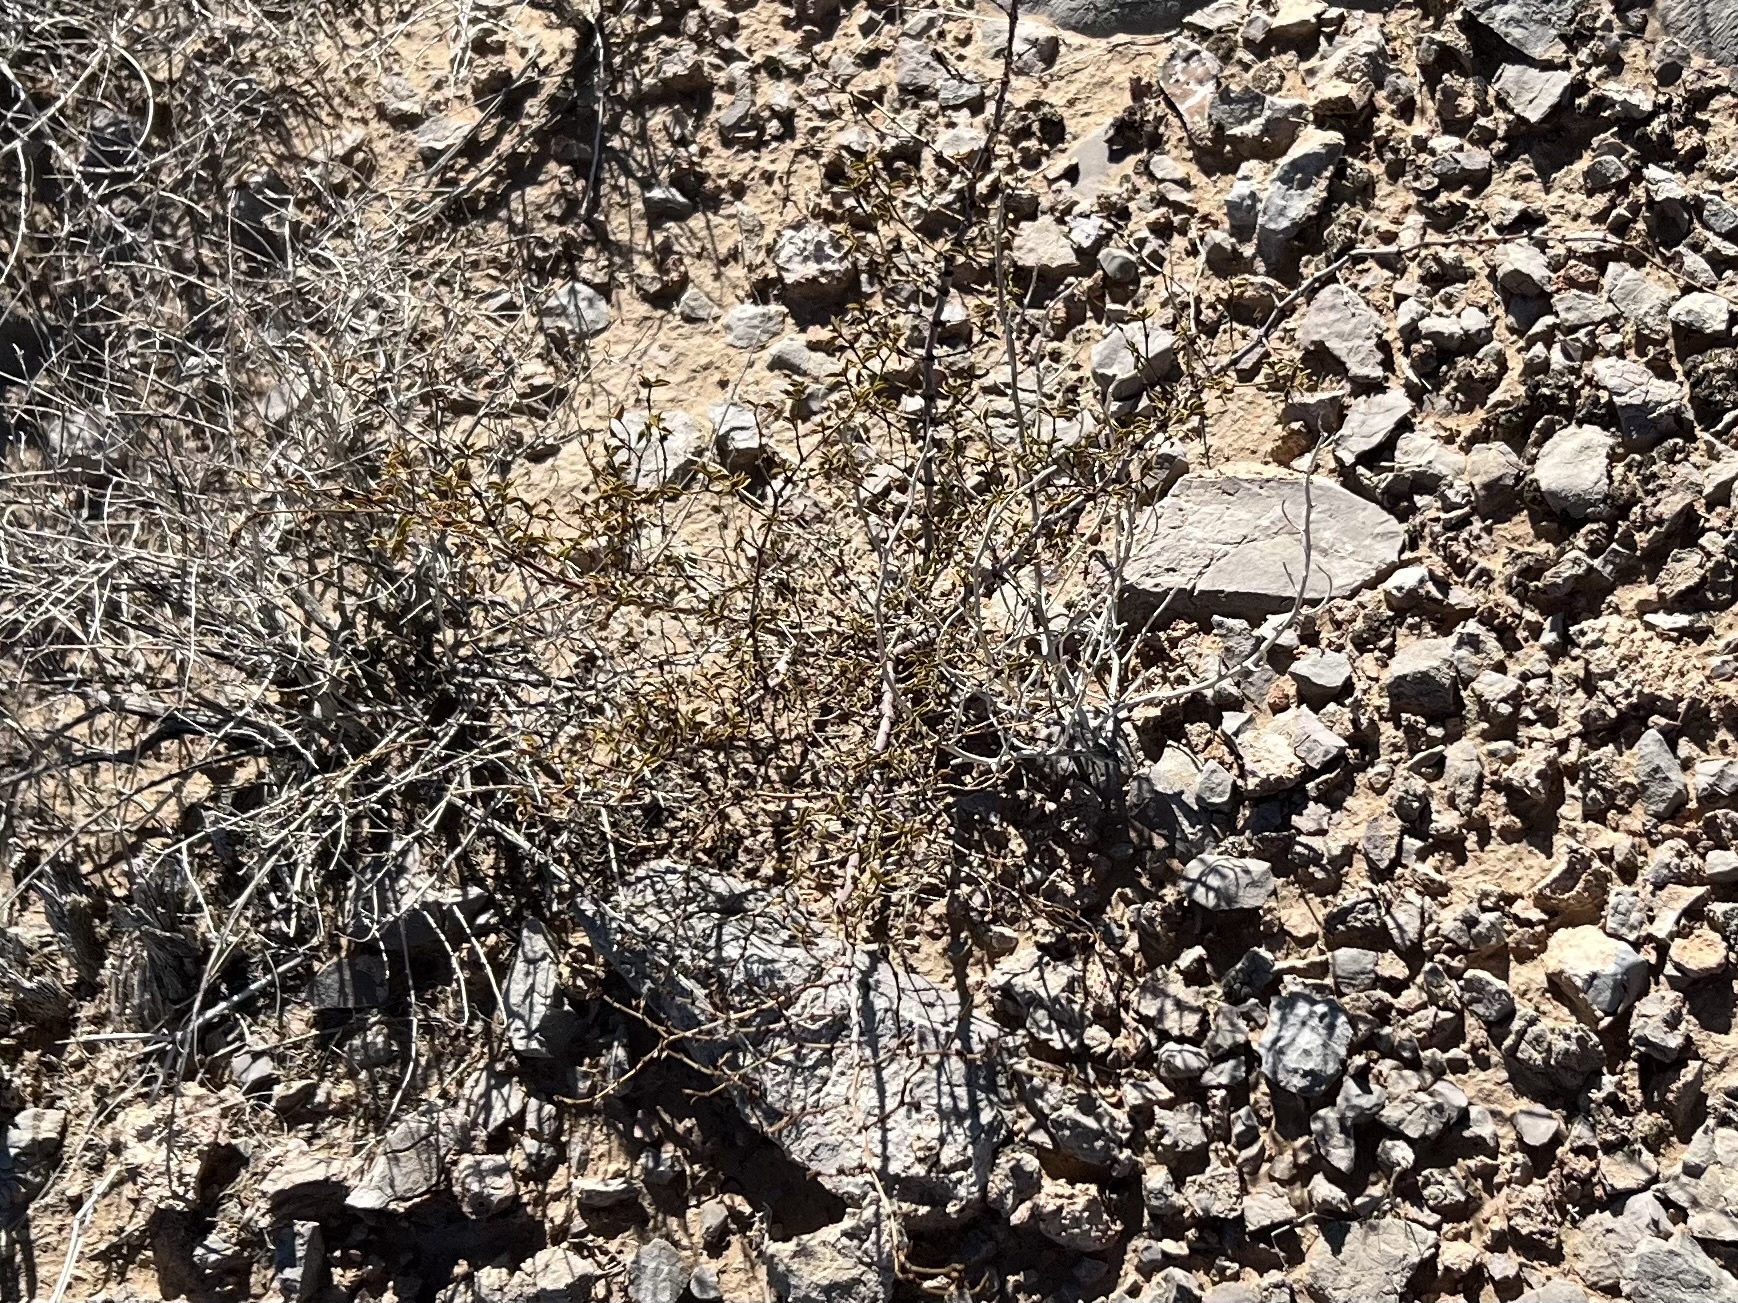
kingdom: Plantae
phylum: Tracheophyta
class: Magnoliopsida
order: Zygophyllales
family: Zygophyllaceae
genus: Larrea
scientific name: Larrea tridentata
